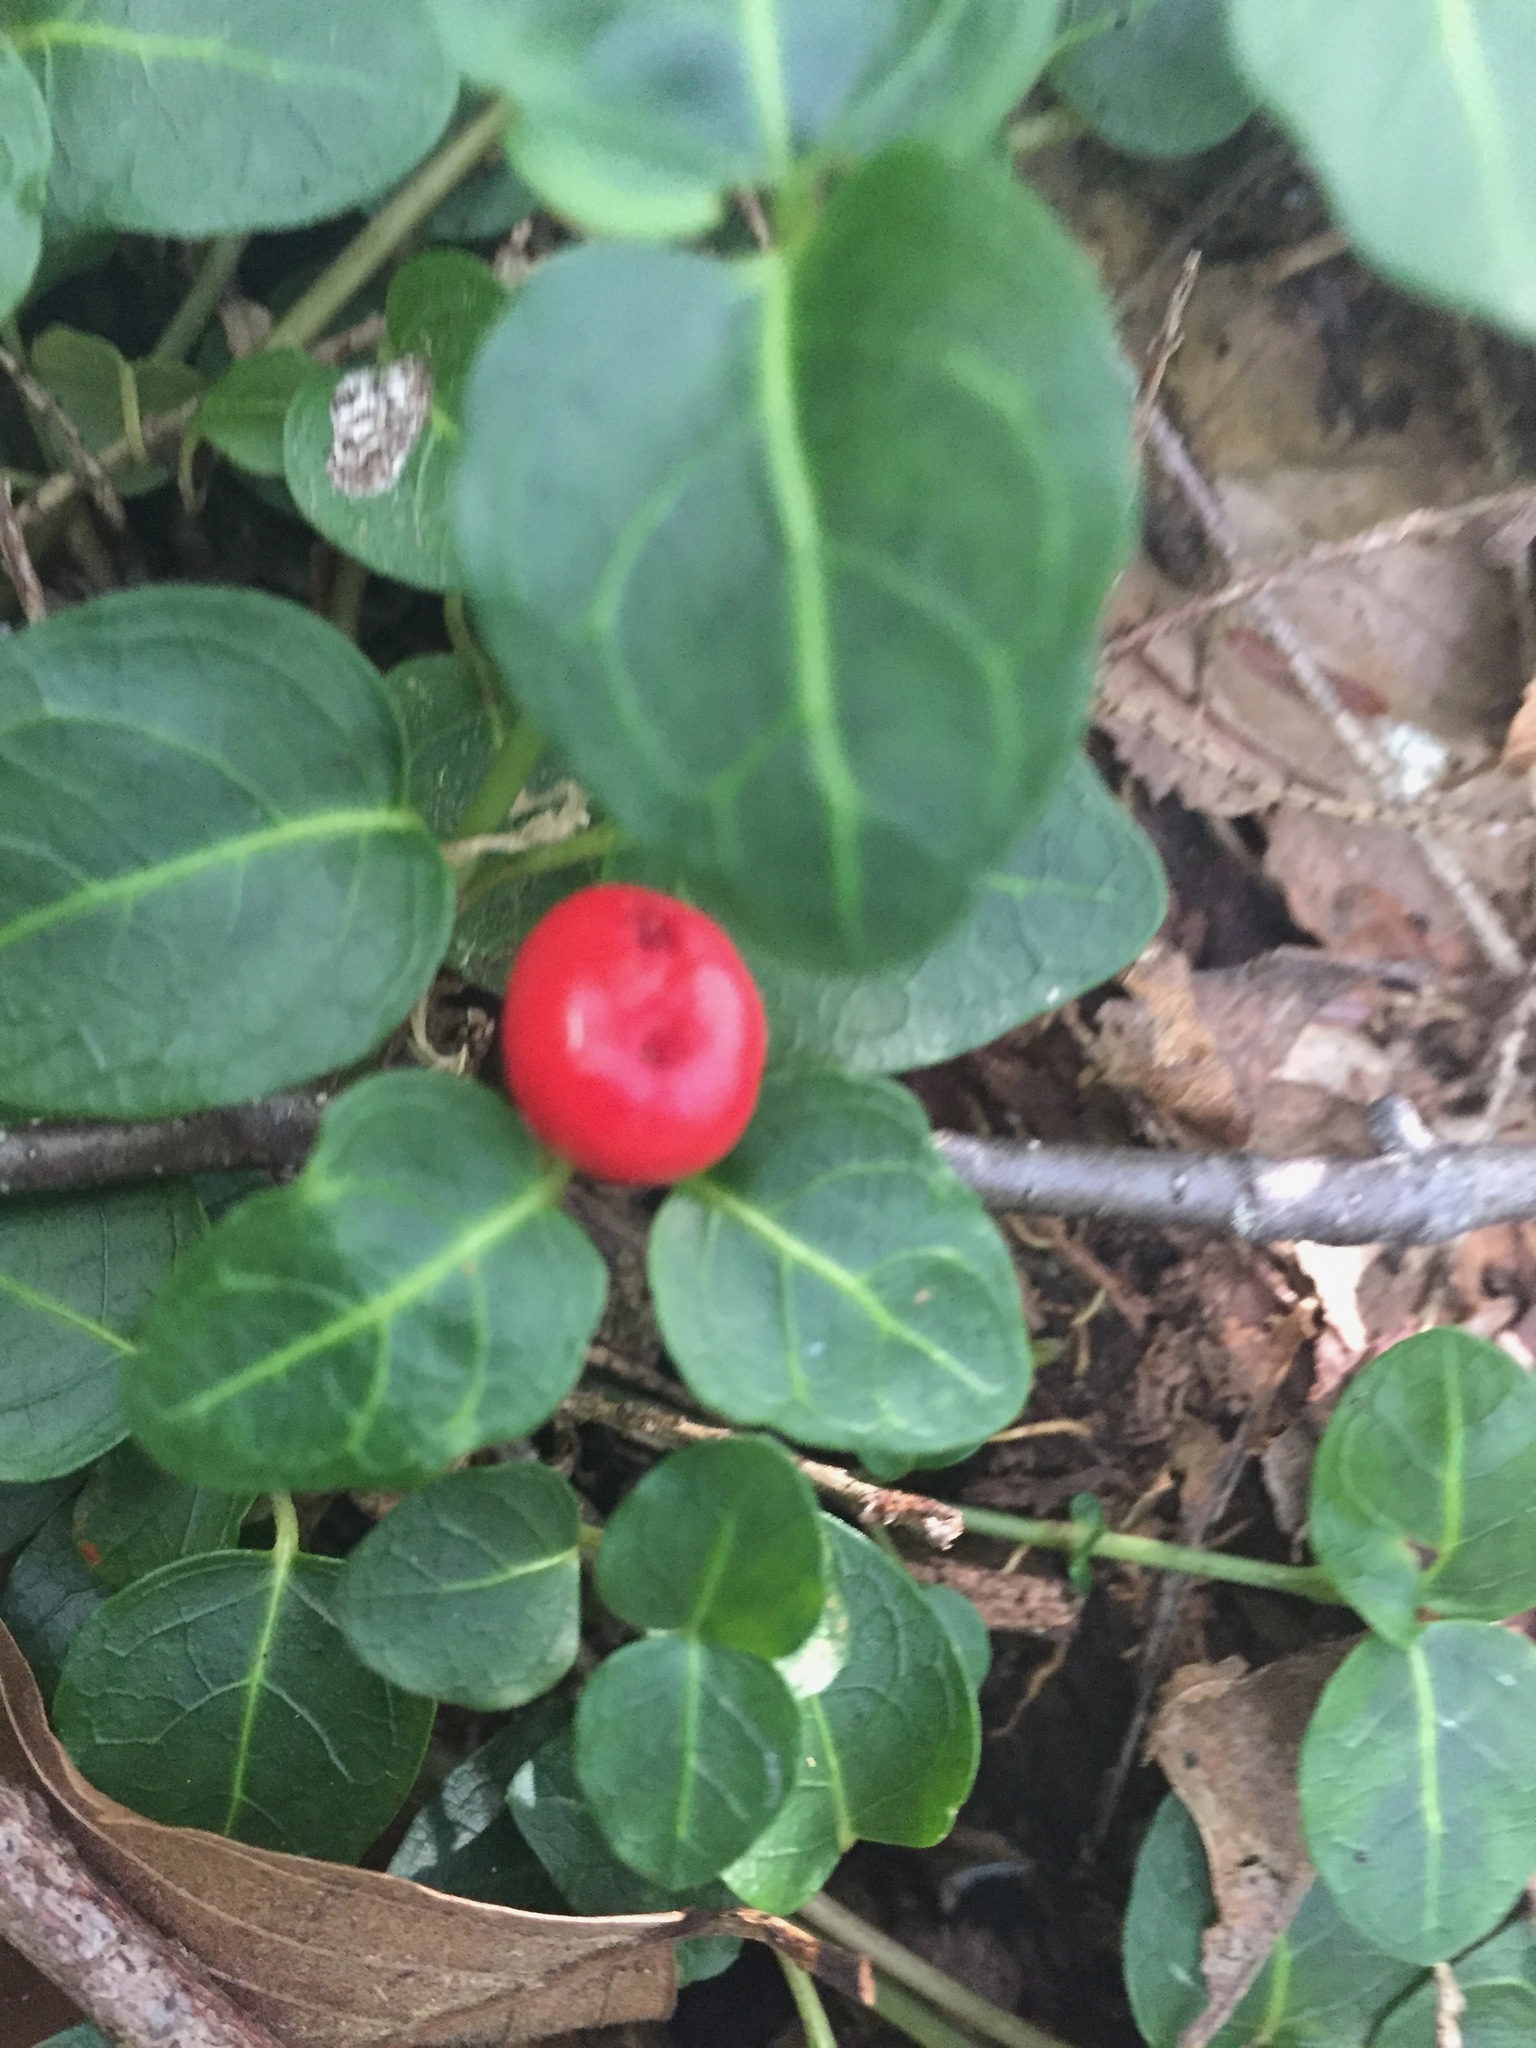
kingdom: Plantae
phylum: Tracheophyta
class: Magnoliopsida
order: Gentianales
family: Rubiaceae
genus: Mitchella
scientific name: Mitchella repens
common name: Partridge-berry
